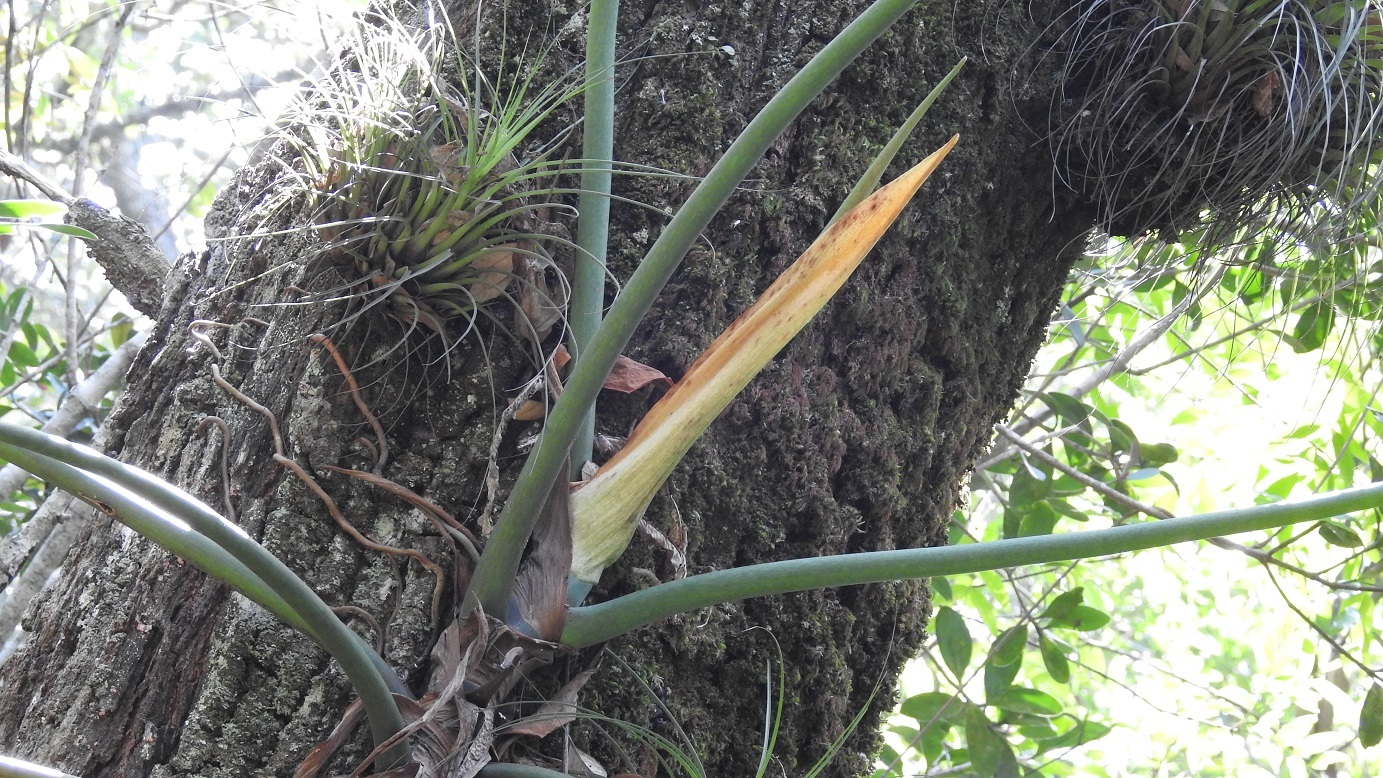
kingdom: Plantae
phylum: Tracheophyta
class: Liliopsida
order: Alismatales
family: Araceae
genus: Philodendron
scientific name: Philodendron radiatum
